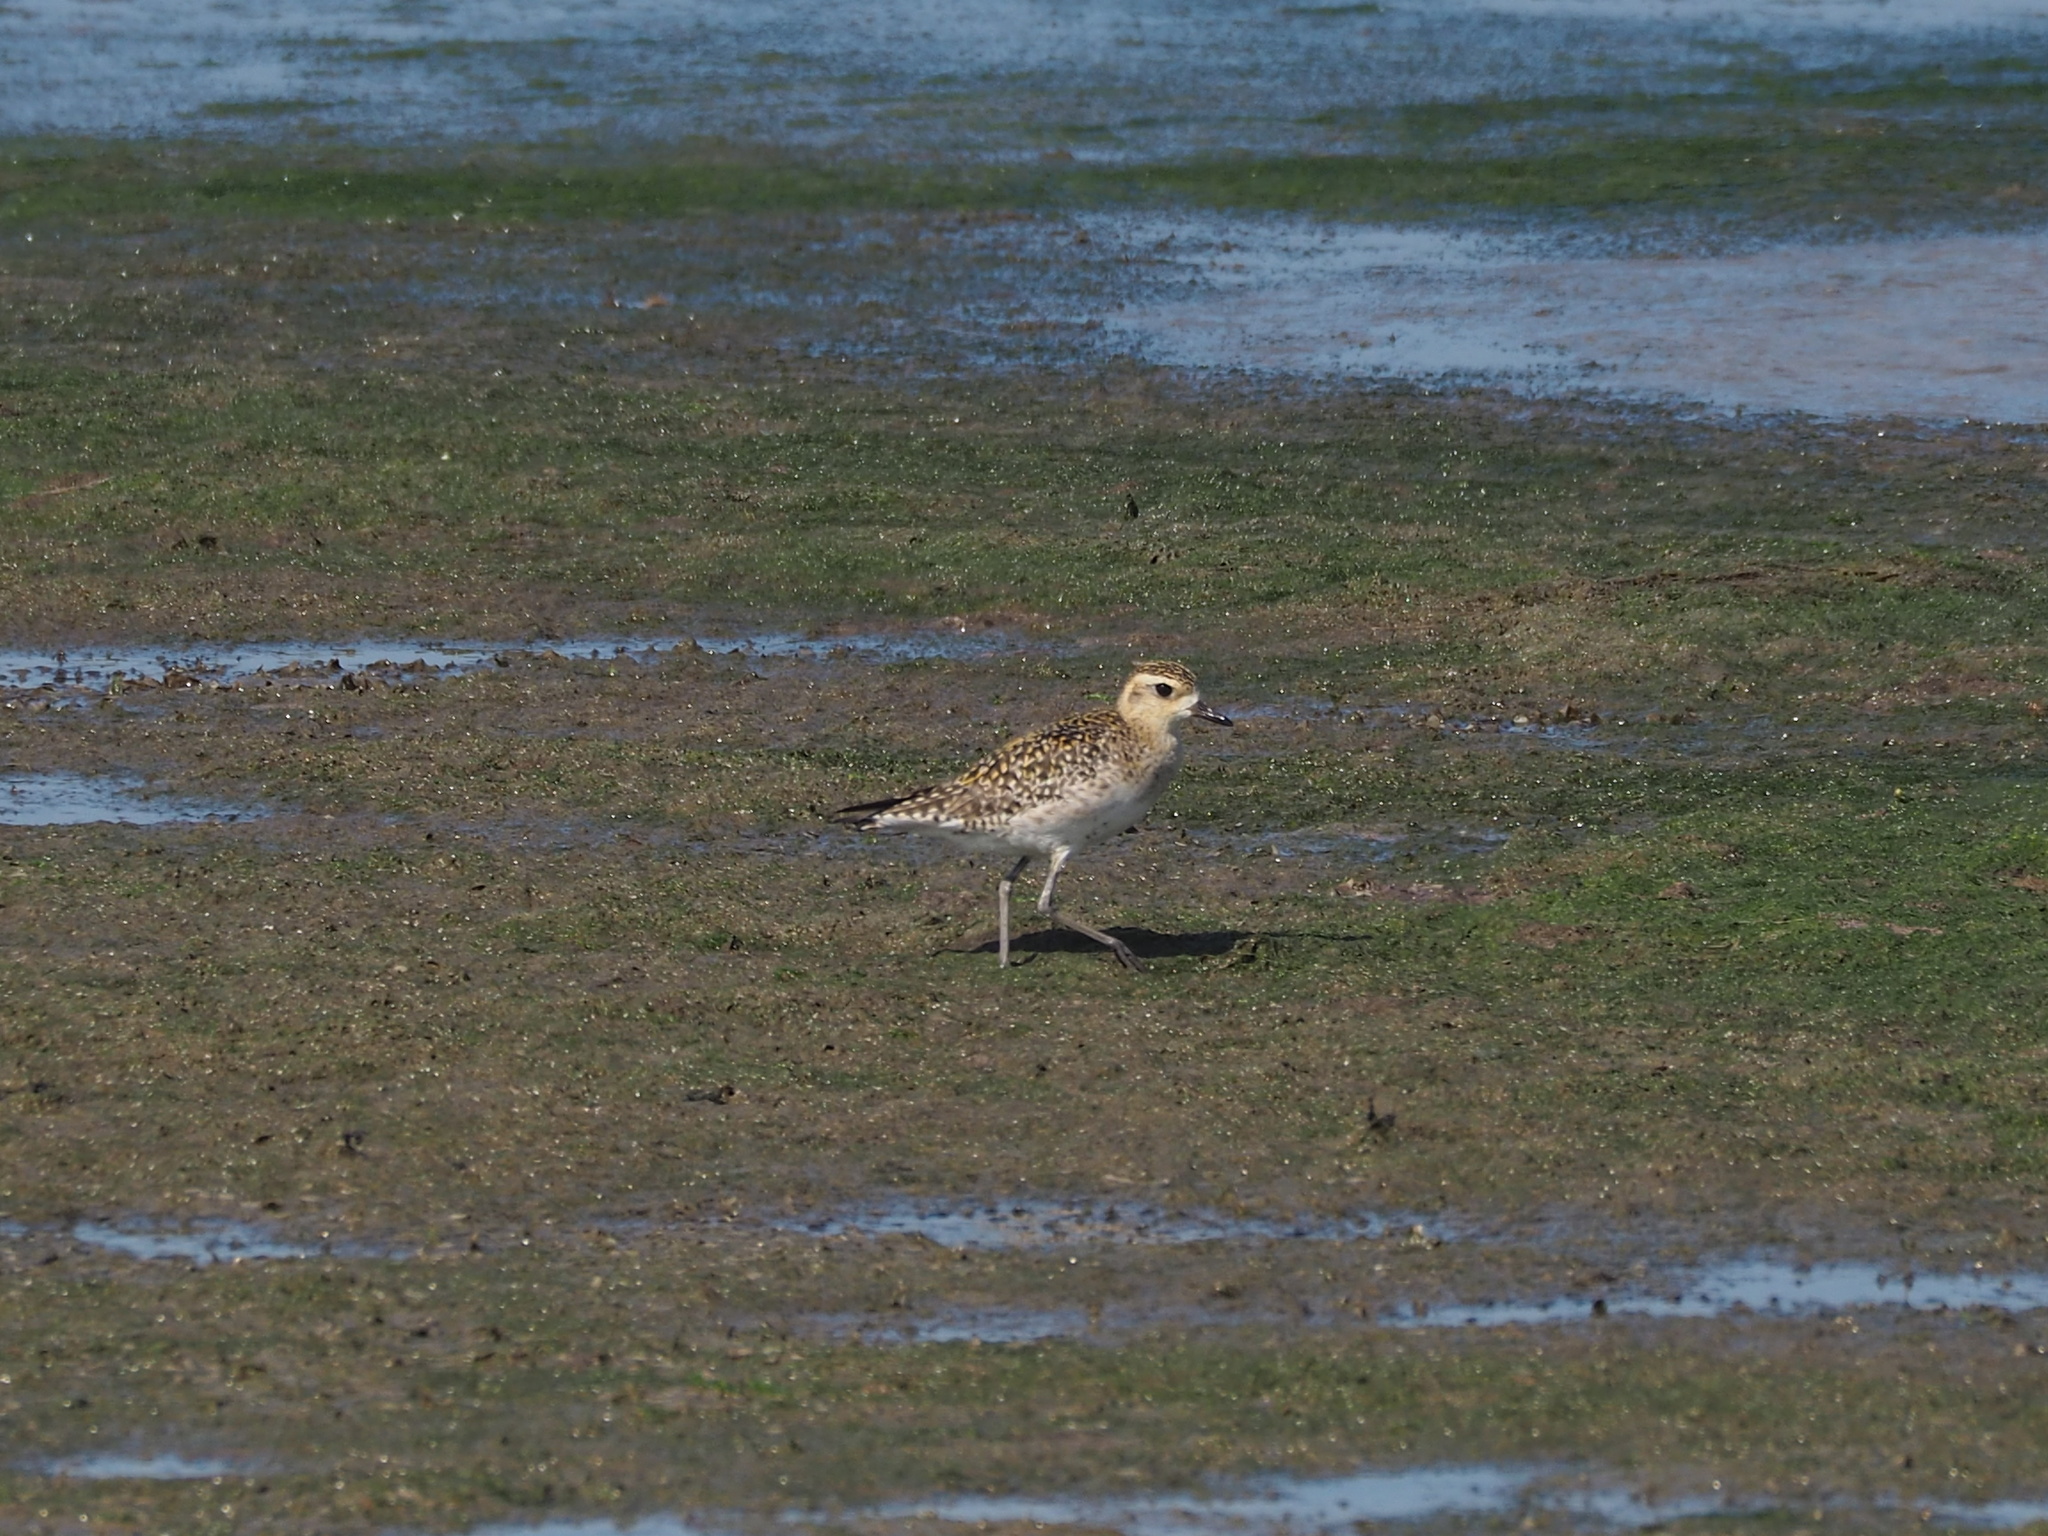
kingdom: Animalia
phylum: Chordata
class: Aves
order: Charadriiformes
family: Charadriidae
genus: Pluvialis
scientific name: Pluvialis fulva
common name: Pacific golden plover
